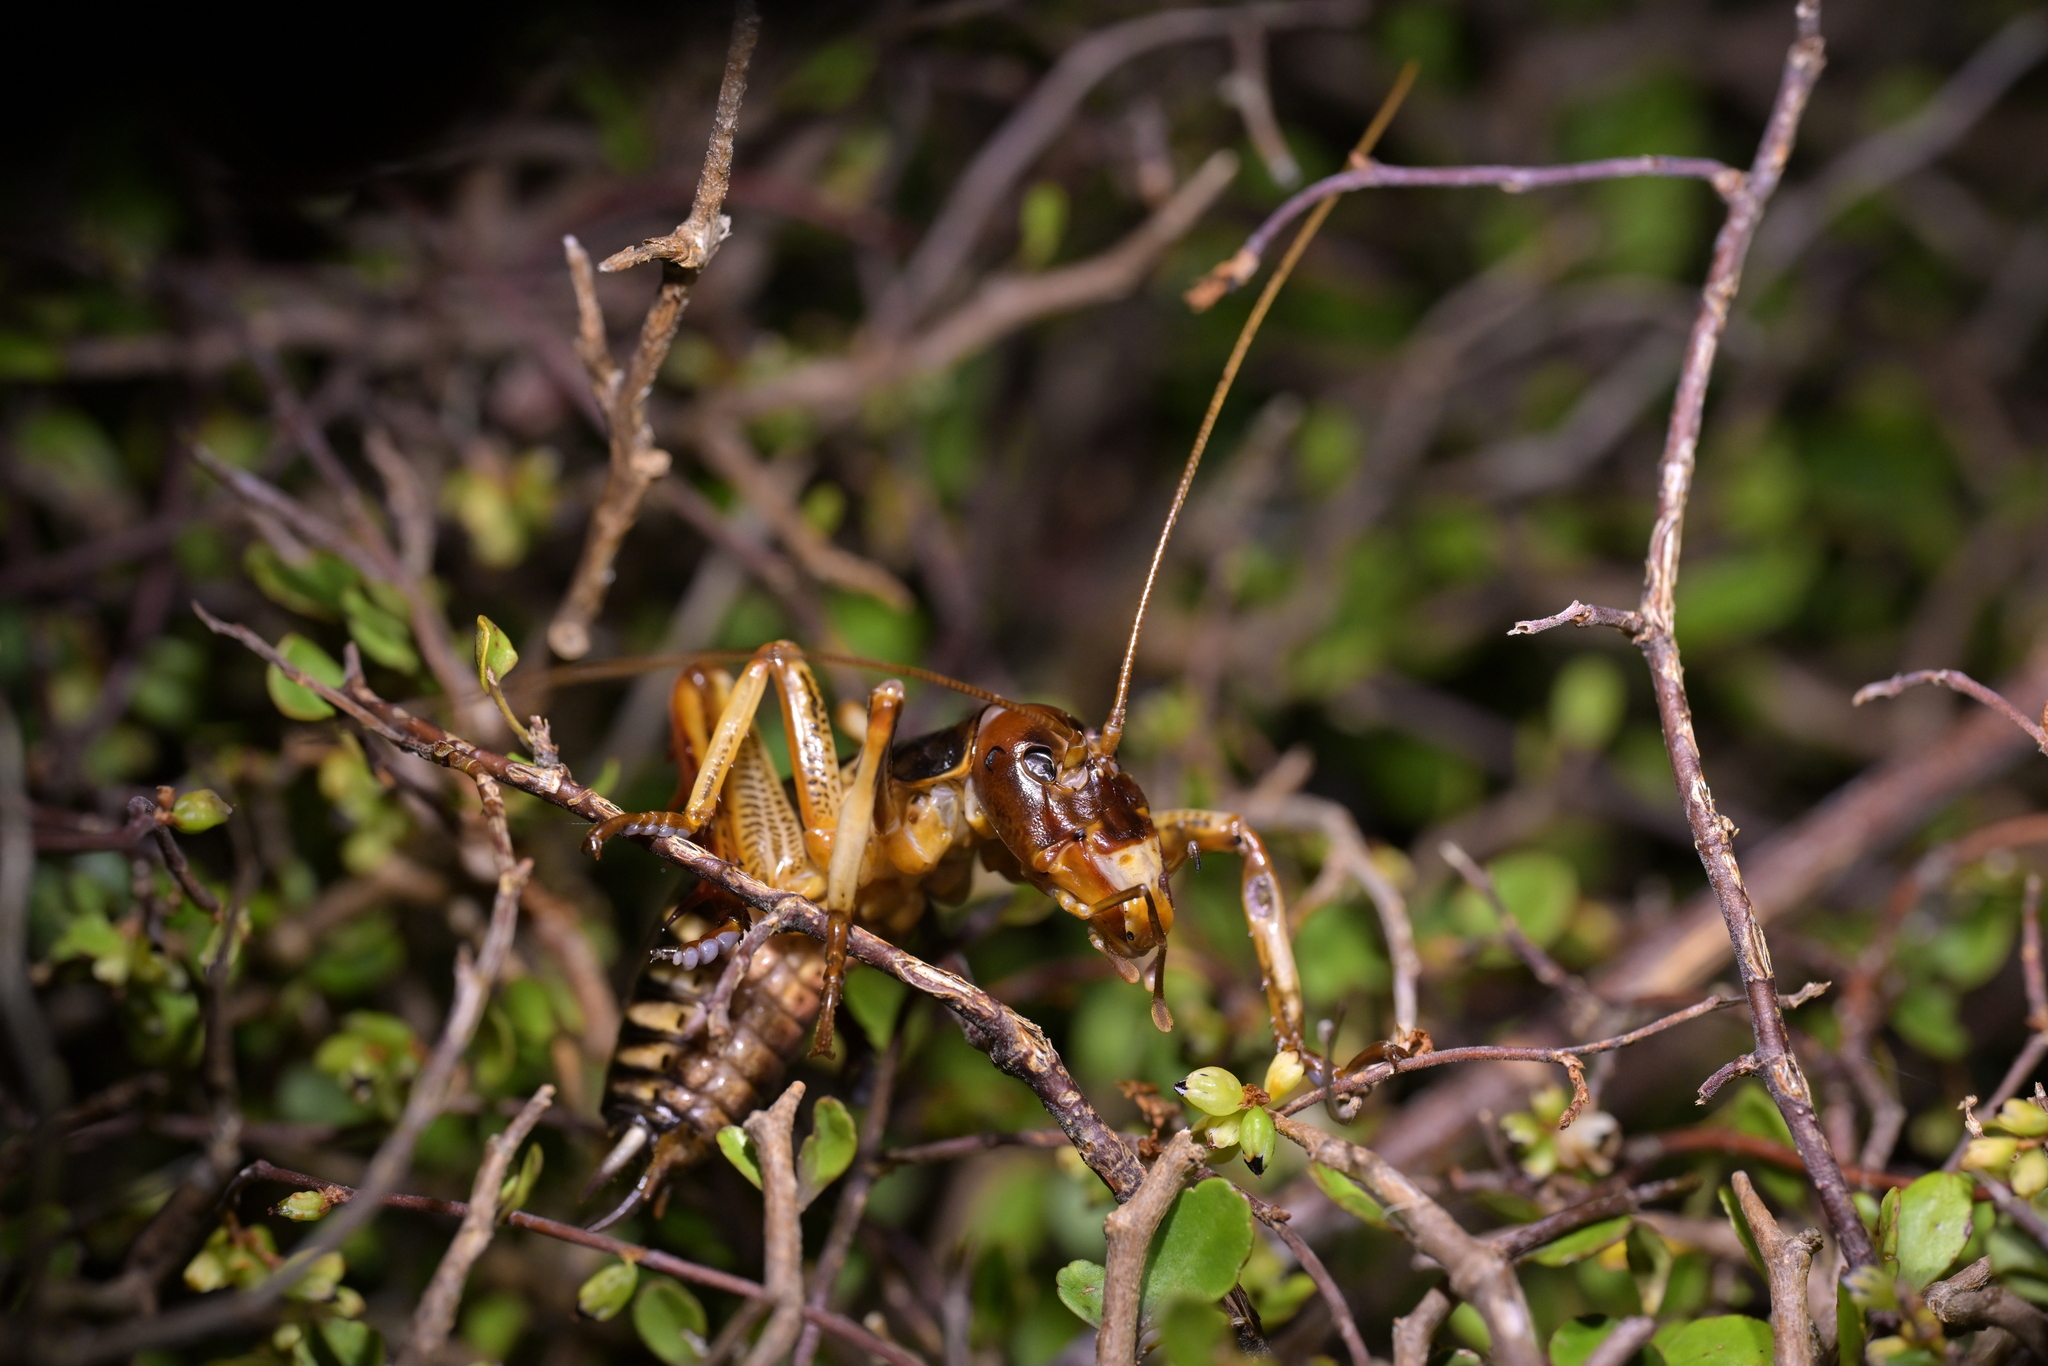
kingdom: Animalia
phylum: Arthropoda
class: Insecta
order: Orthoptera
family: Anostostomatidae
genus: Hemideina
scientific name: Hemideina crassidens
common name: Wellington tree weta
